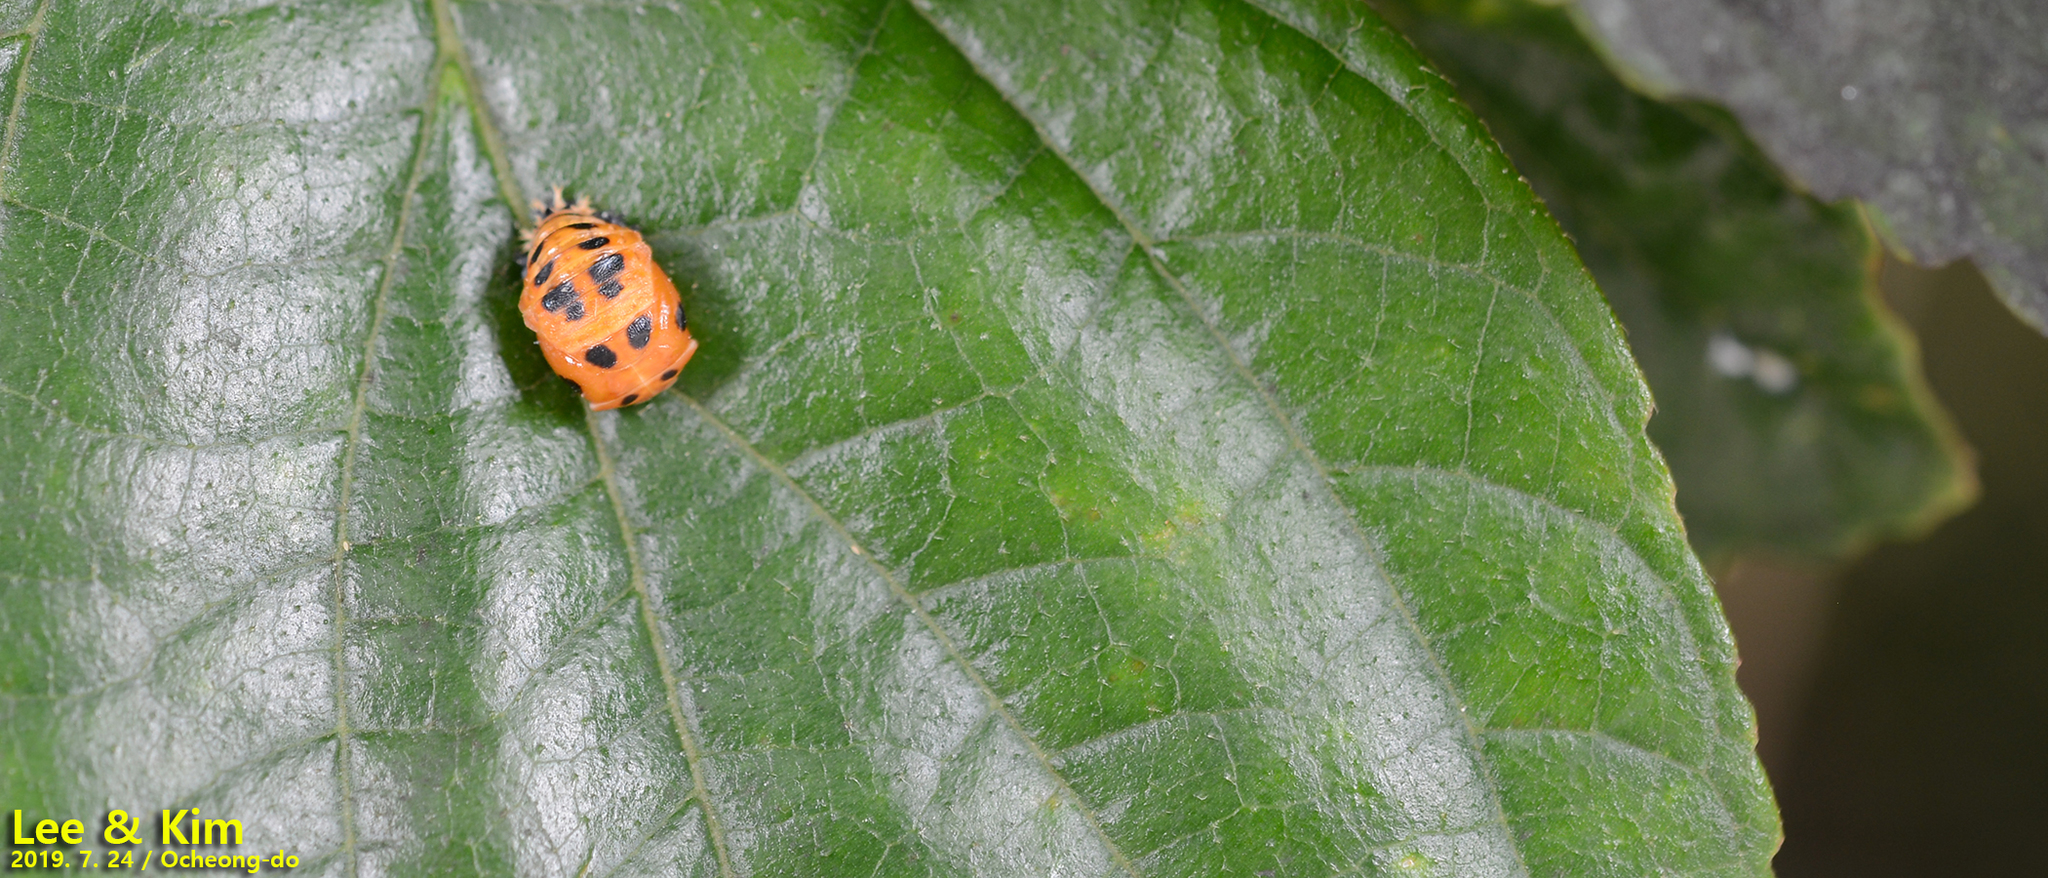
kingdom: Animalia
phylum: Arthropoda
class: Insecta
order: Coleoptera
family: Coccinellidae
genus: Harmonia
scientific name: Harmonia axyridis
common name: Harlequin ladybird
